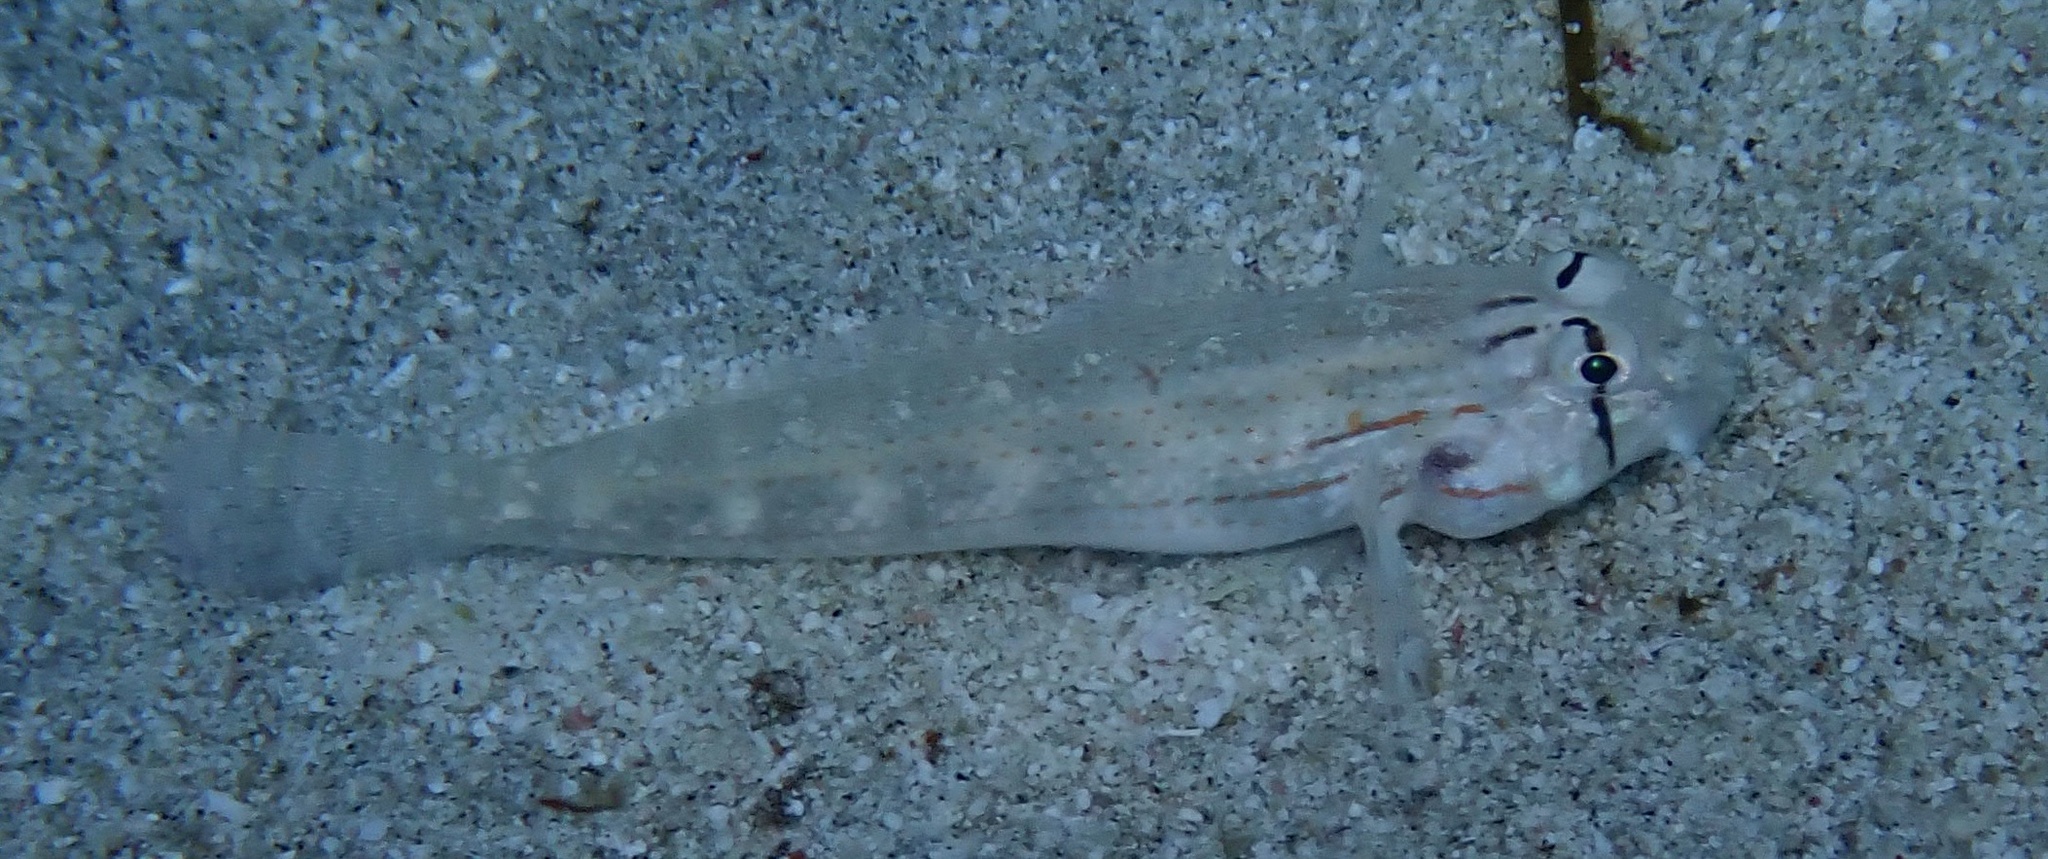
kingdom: Animalia
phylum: Chordata
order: Perciformes
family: Gobiidae
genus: Gnatholepis
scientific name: Gnatholepis caudimaculata
